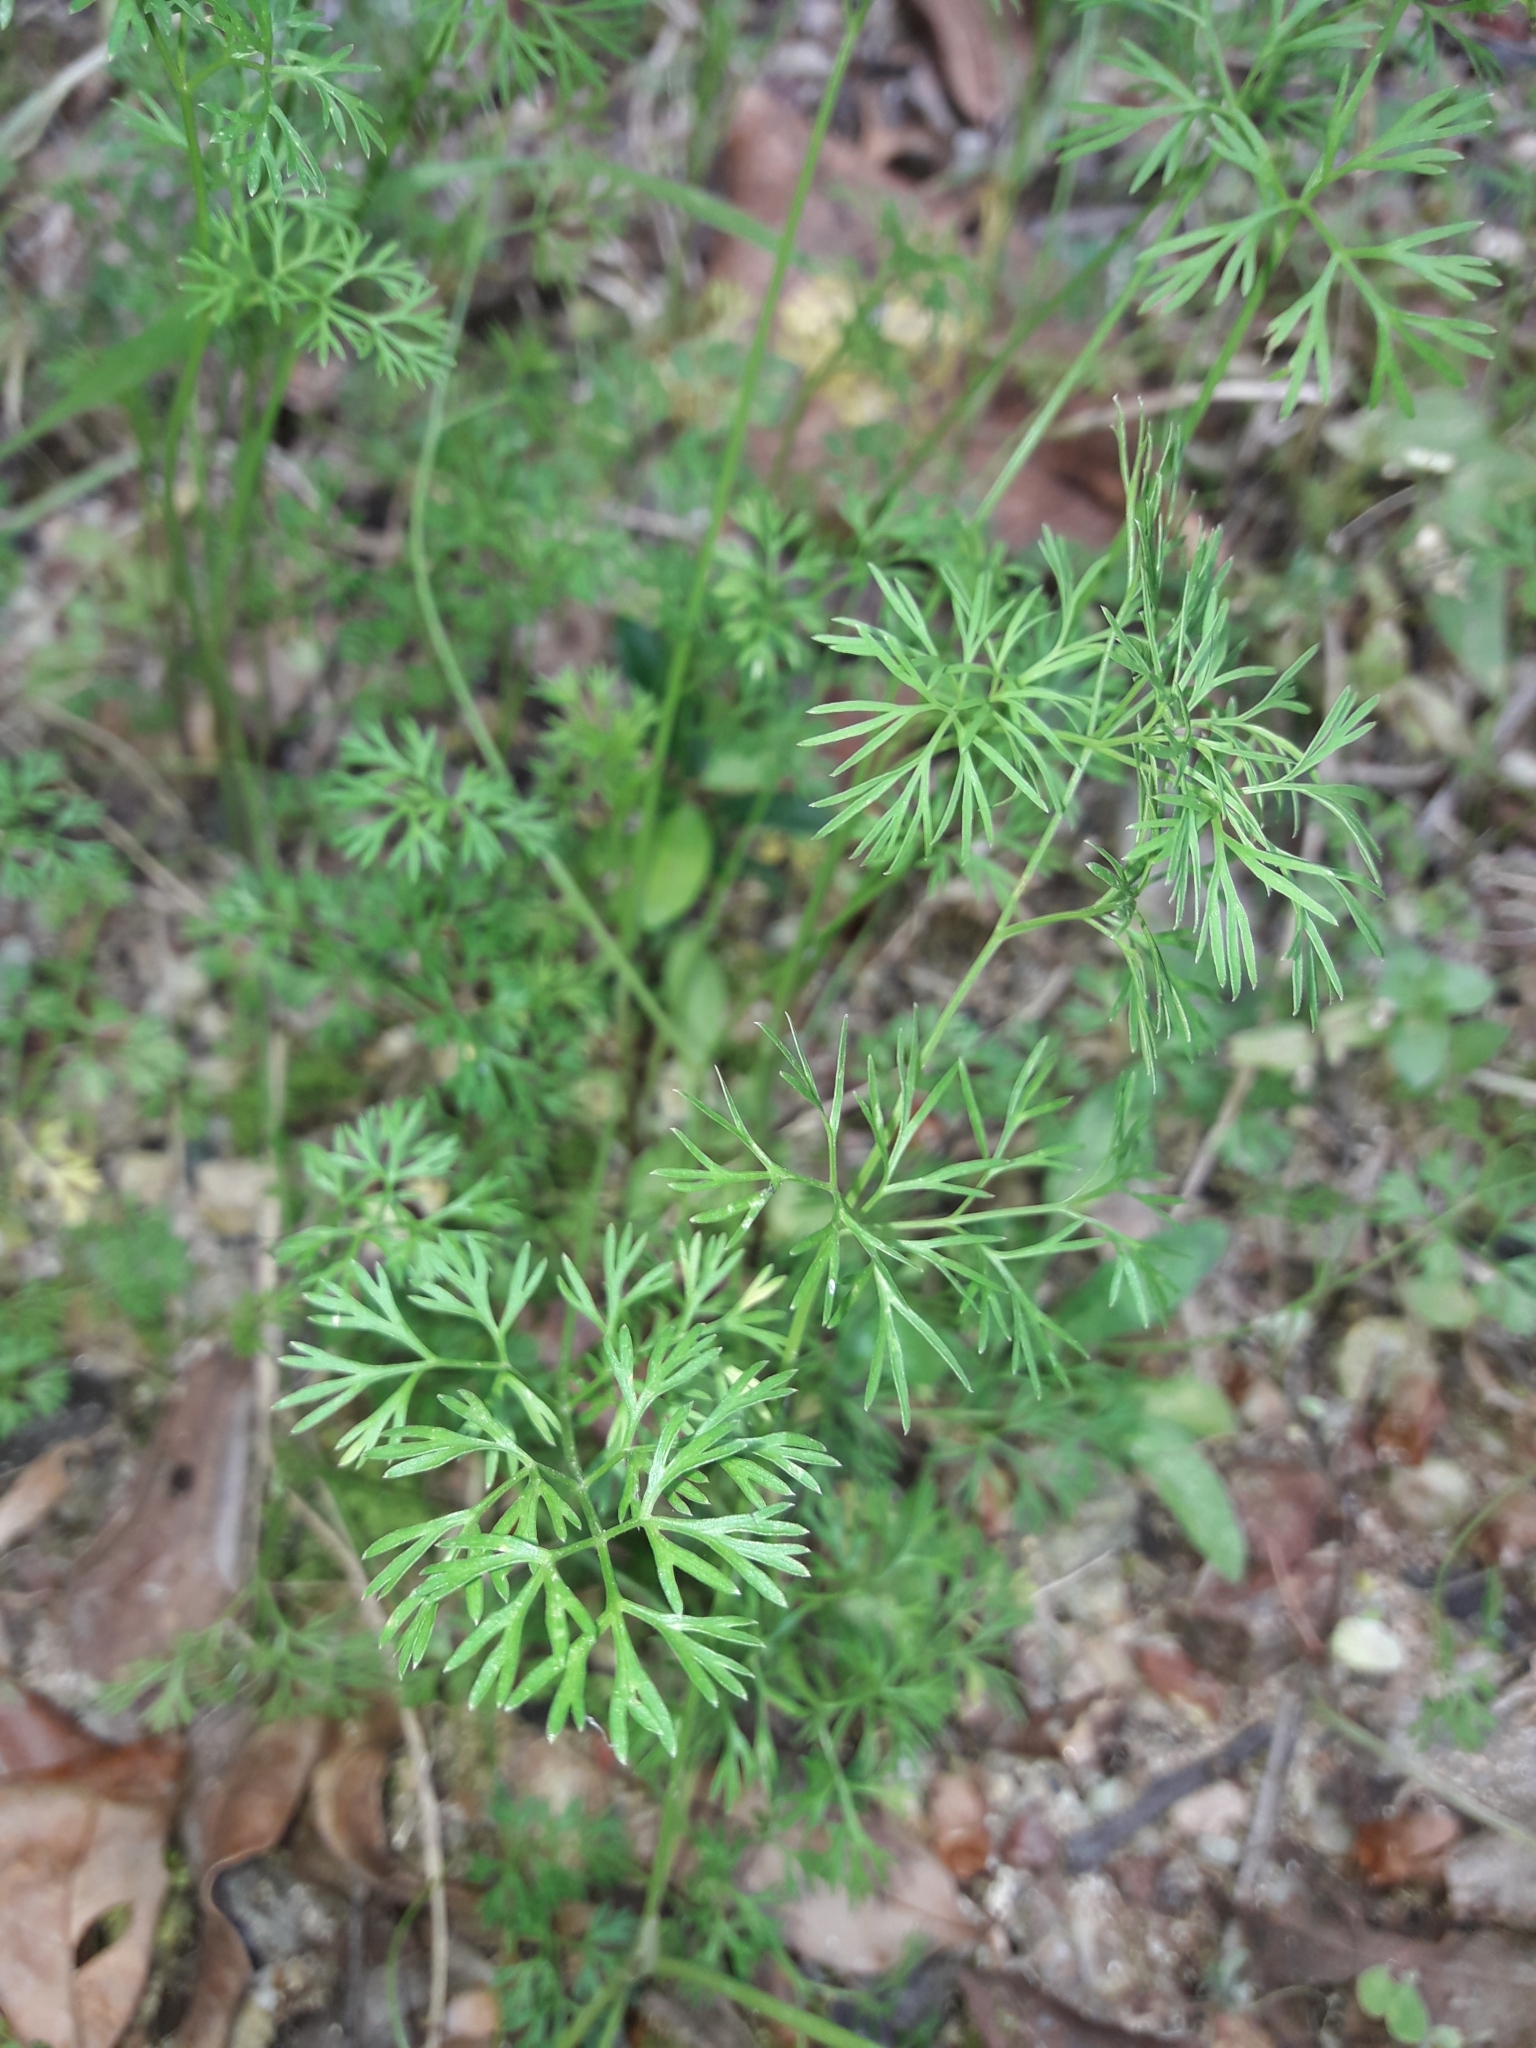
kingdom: Plantae
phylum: Tracheophyta
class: Magnoliopsida
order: Apiales
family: Apiaceae
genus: Cyclospermum
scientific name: Cyclospermum leptophyllum
